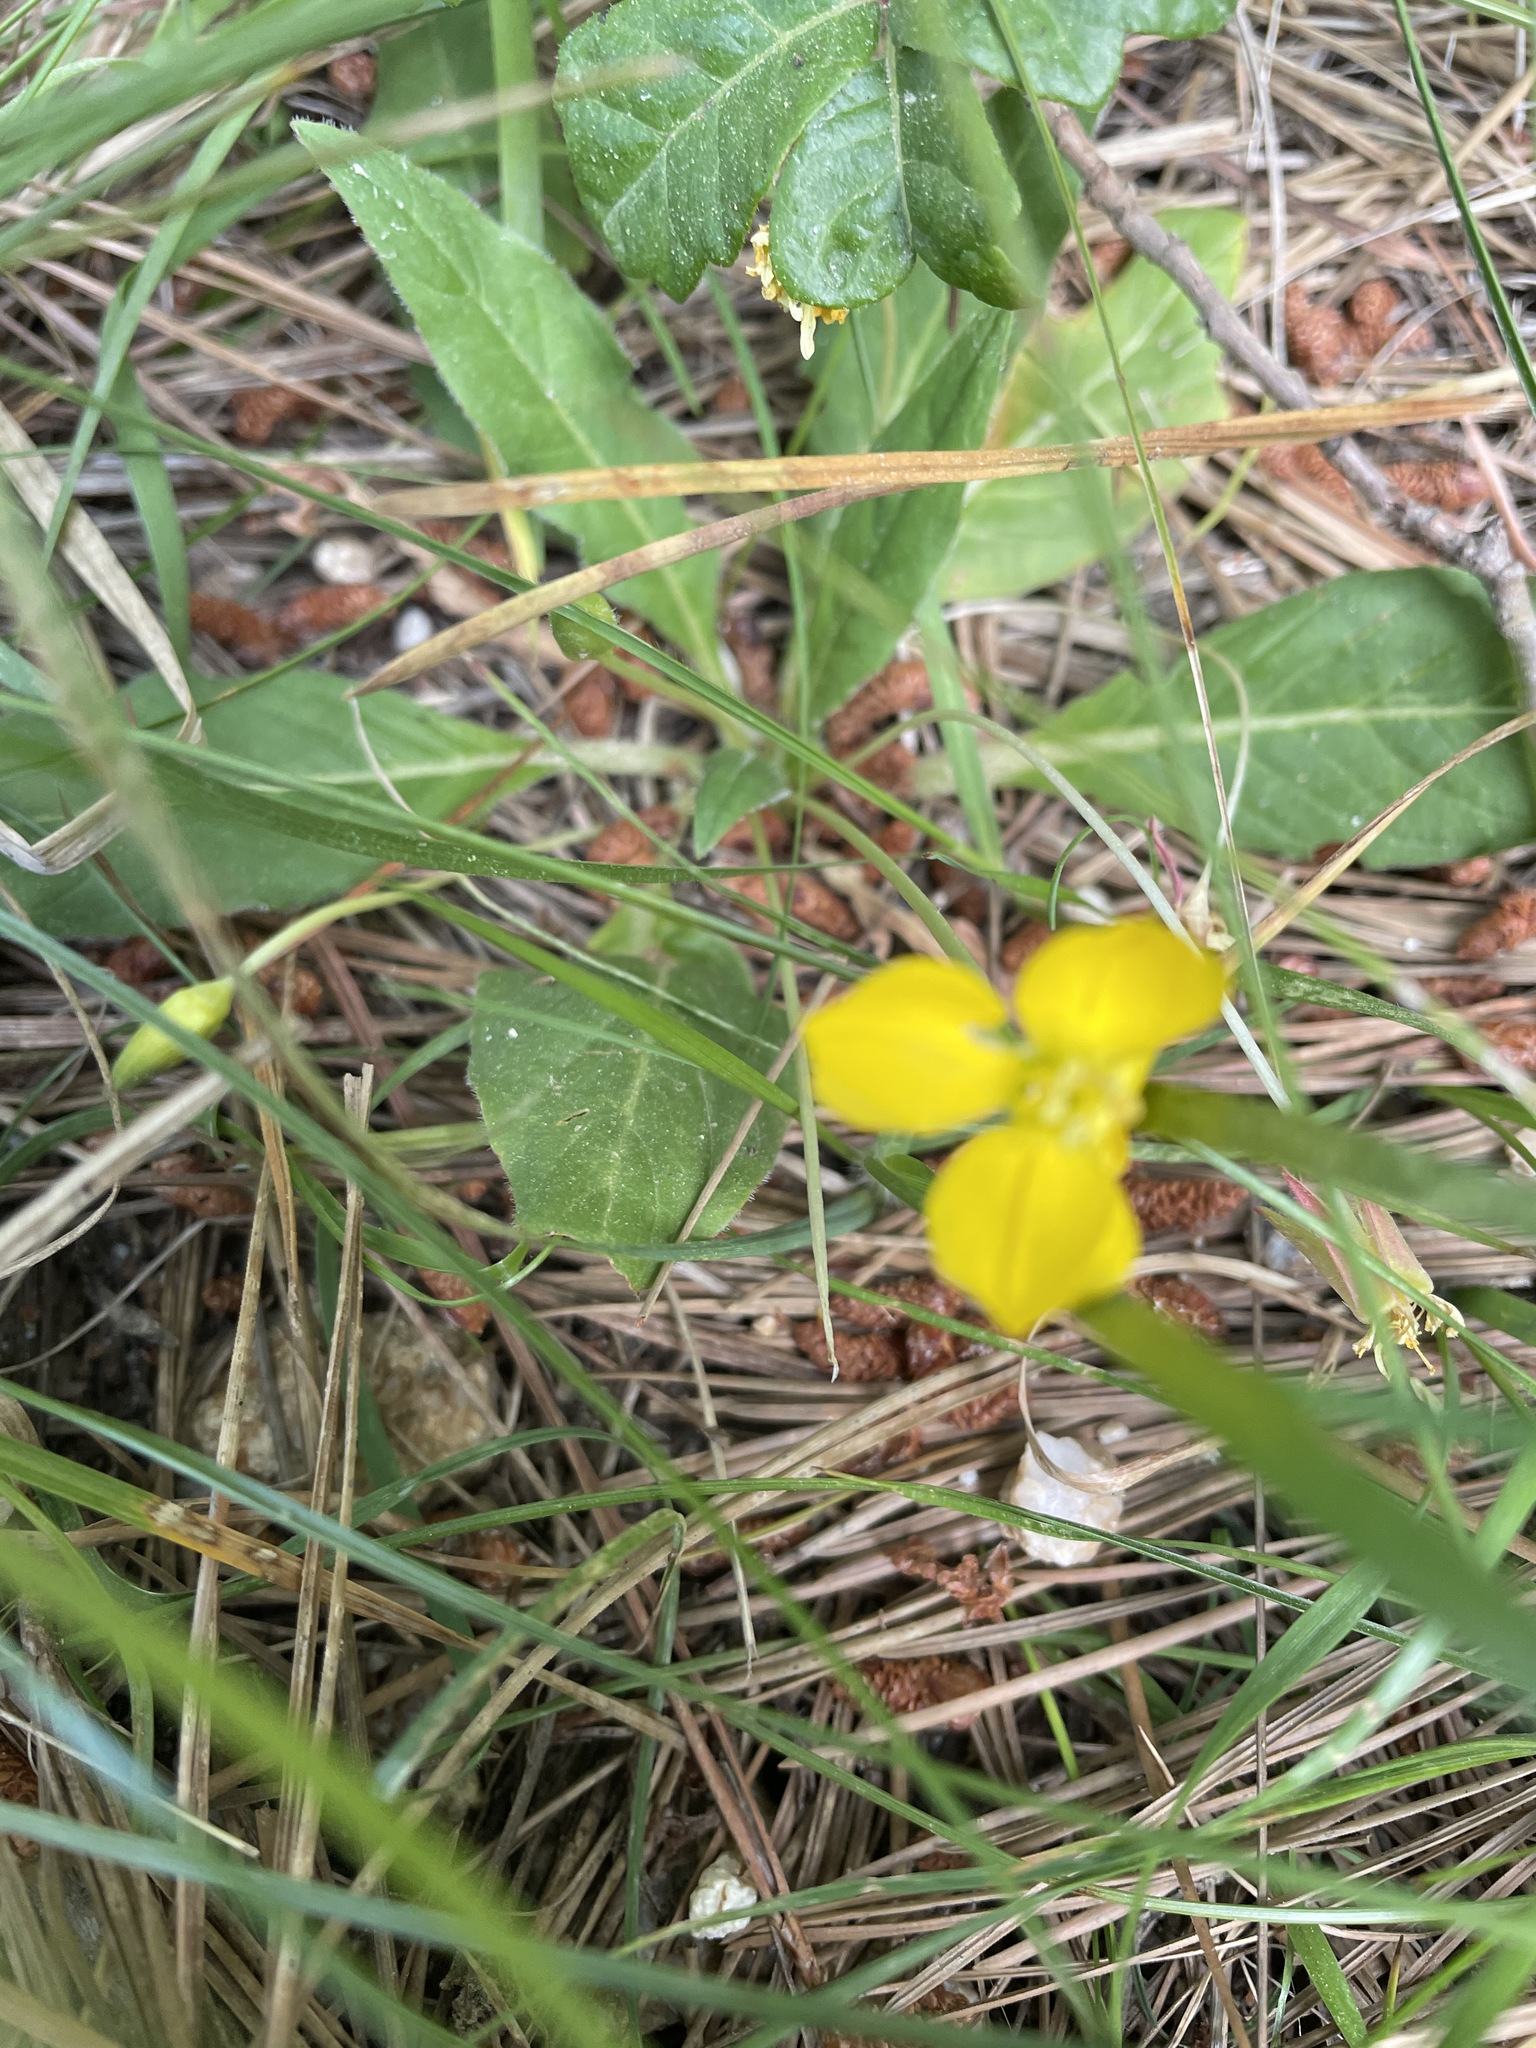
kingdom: Plantae
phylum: Tracheophyta
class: Magnoliopsida
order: Myrtales
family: Onagraceae
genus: Taraxia
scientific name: Taraxia ovata
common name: Goldeneggs
